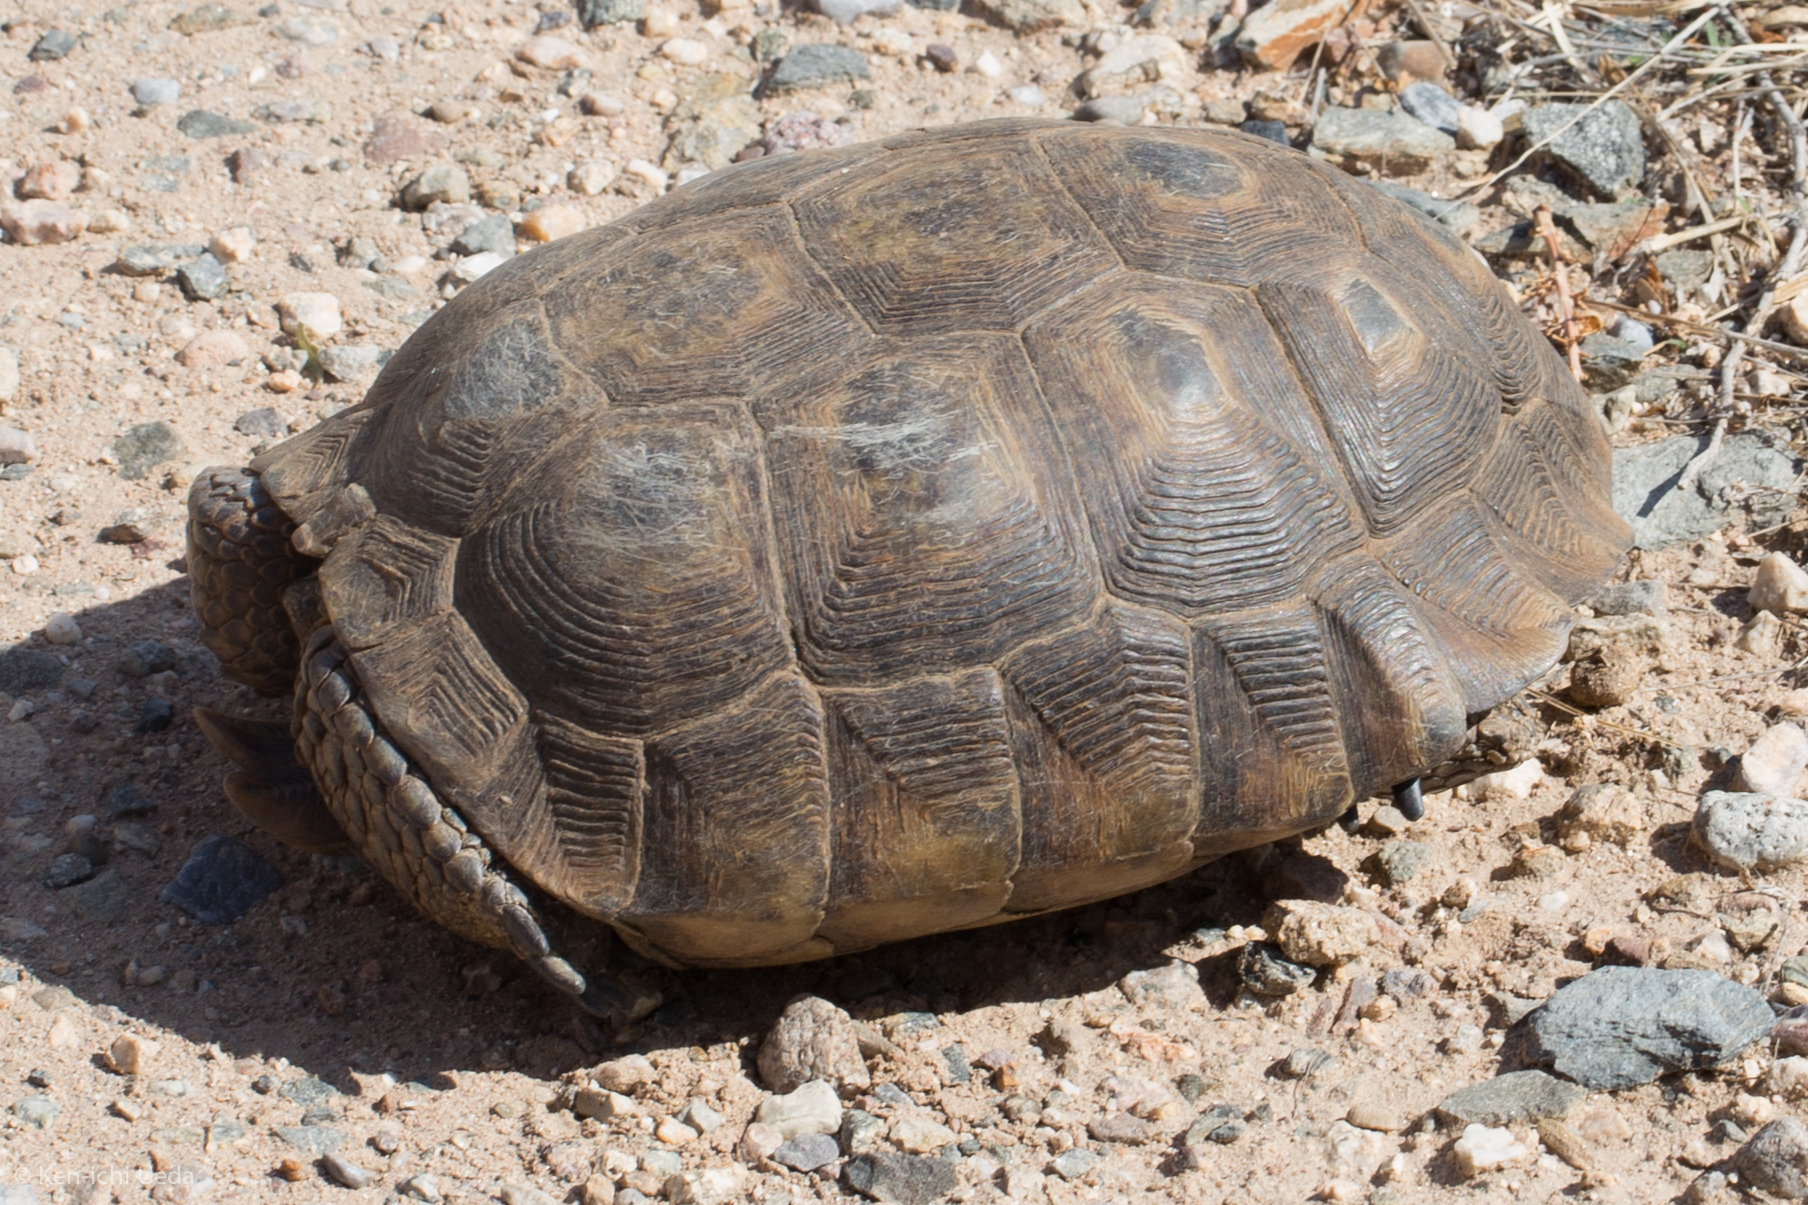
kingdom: Animalia
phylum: Chordata
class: Testudines
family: Testudinidae
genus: Gopherus
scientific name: Gopherus morafkai
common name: Sonoran desert tortoise
